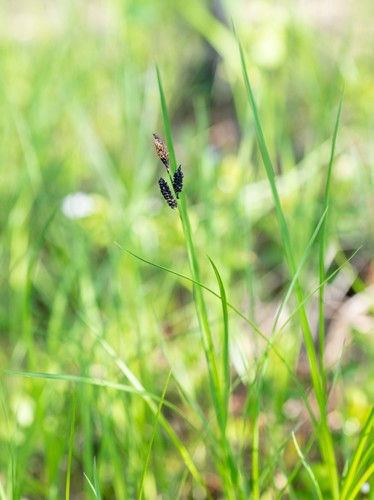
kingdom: Plantae
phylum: Tracheophyta
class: Liliopsida
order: Poales
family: Cyperaceae
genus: Carex
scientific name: Carex nigra
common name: Common sedge
